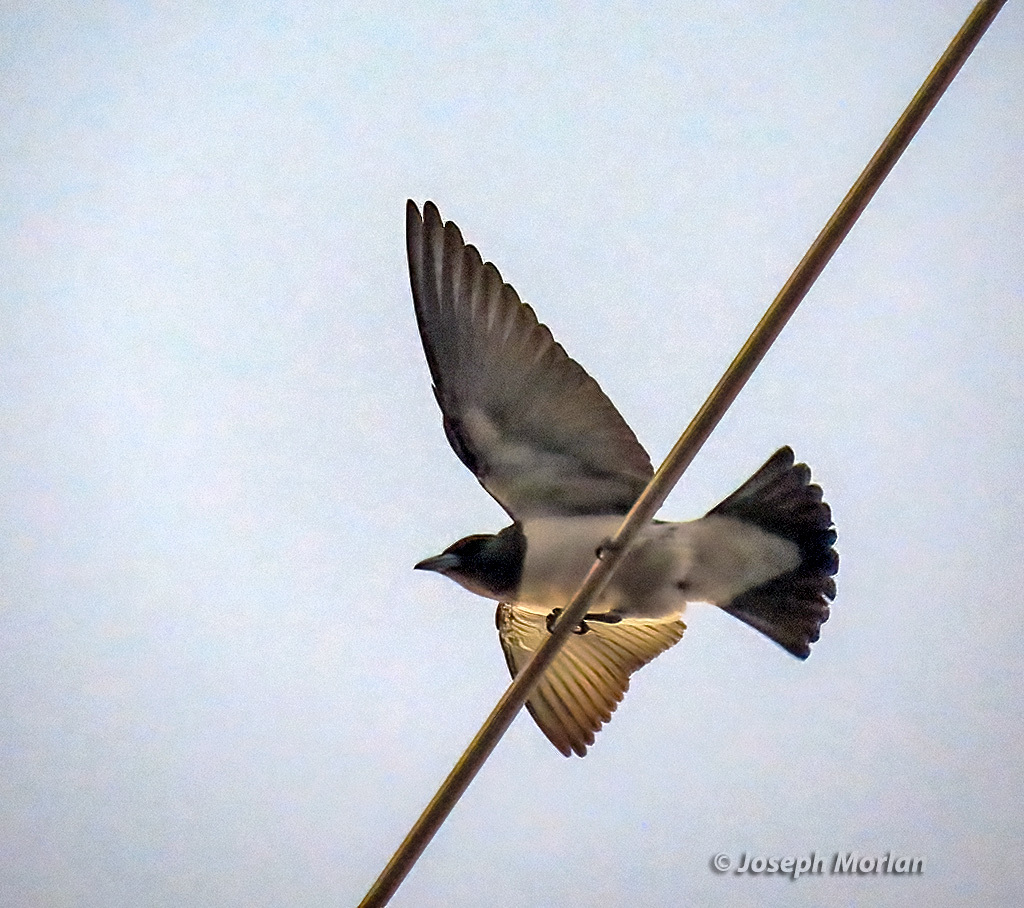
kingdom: Animalia
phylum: Chordata
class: Aves
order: Passeriformes
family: Artamidae
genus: Artamus
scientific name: Artamus leucoryn
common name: White-breasted woodswallow
